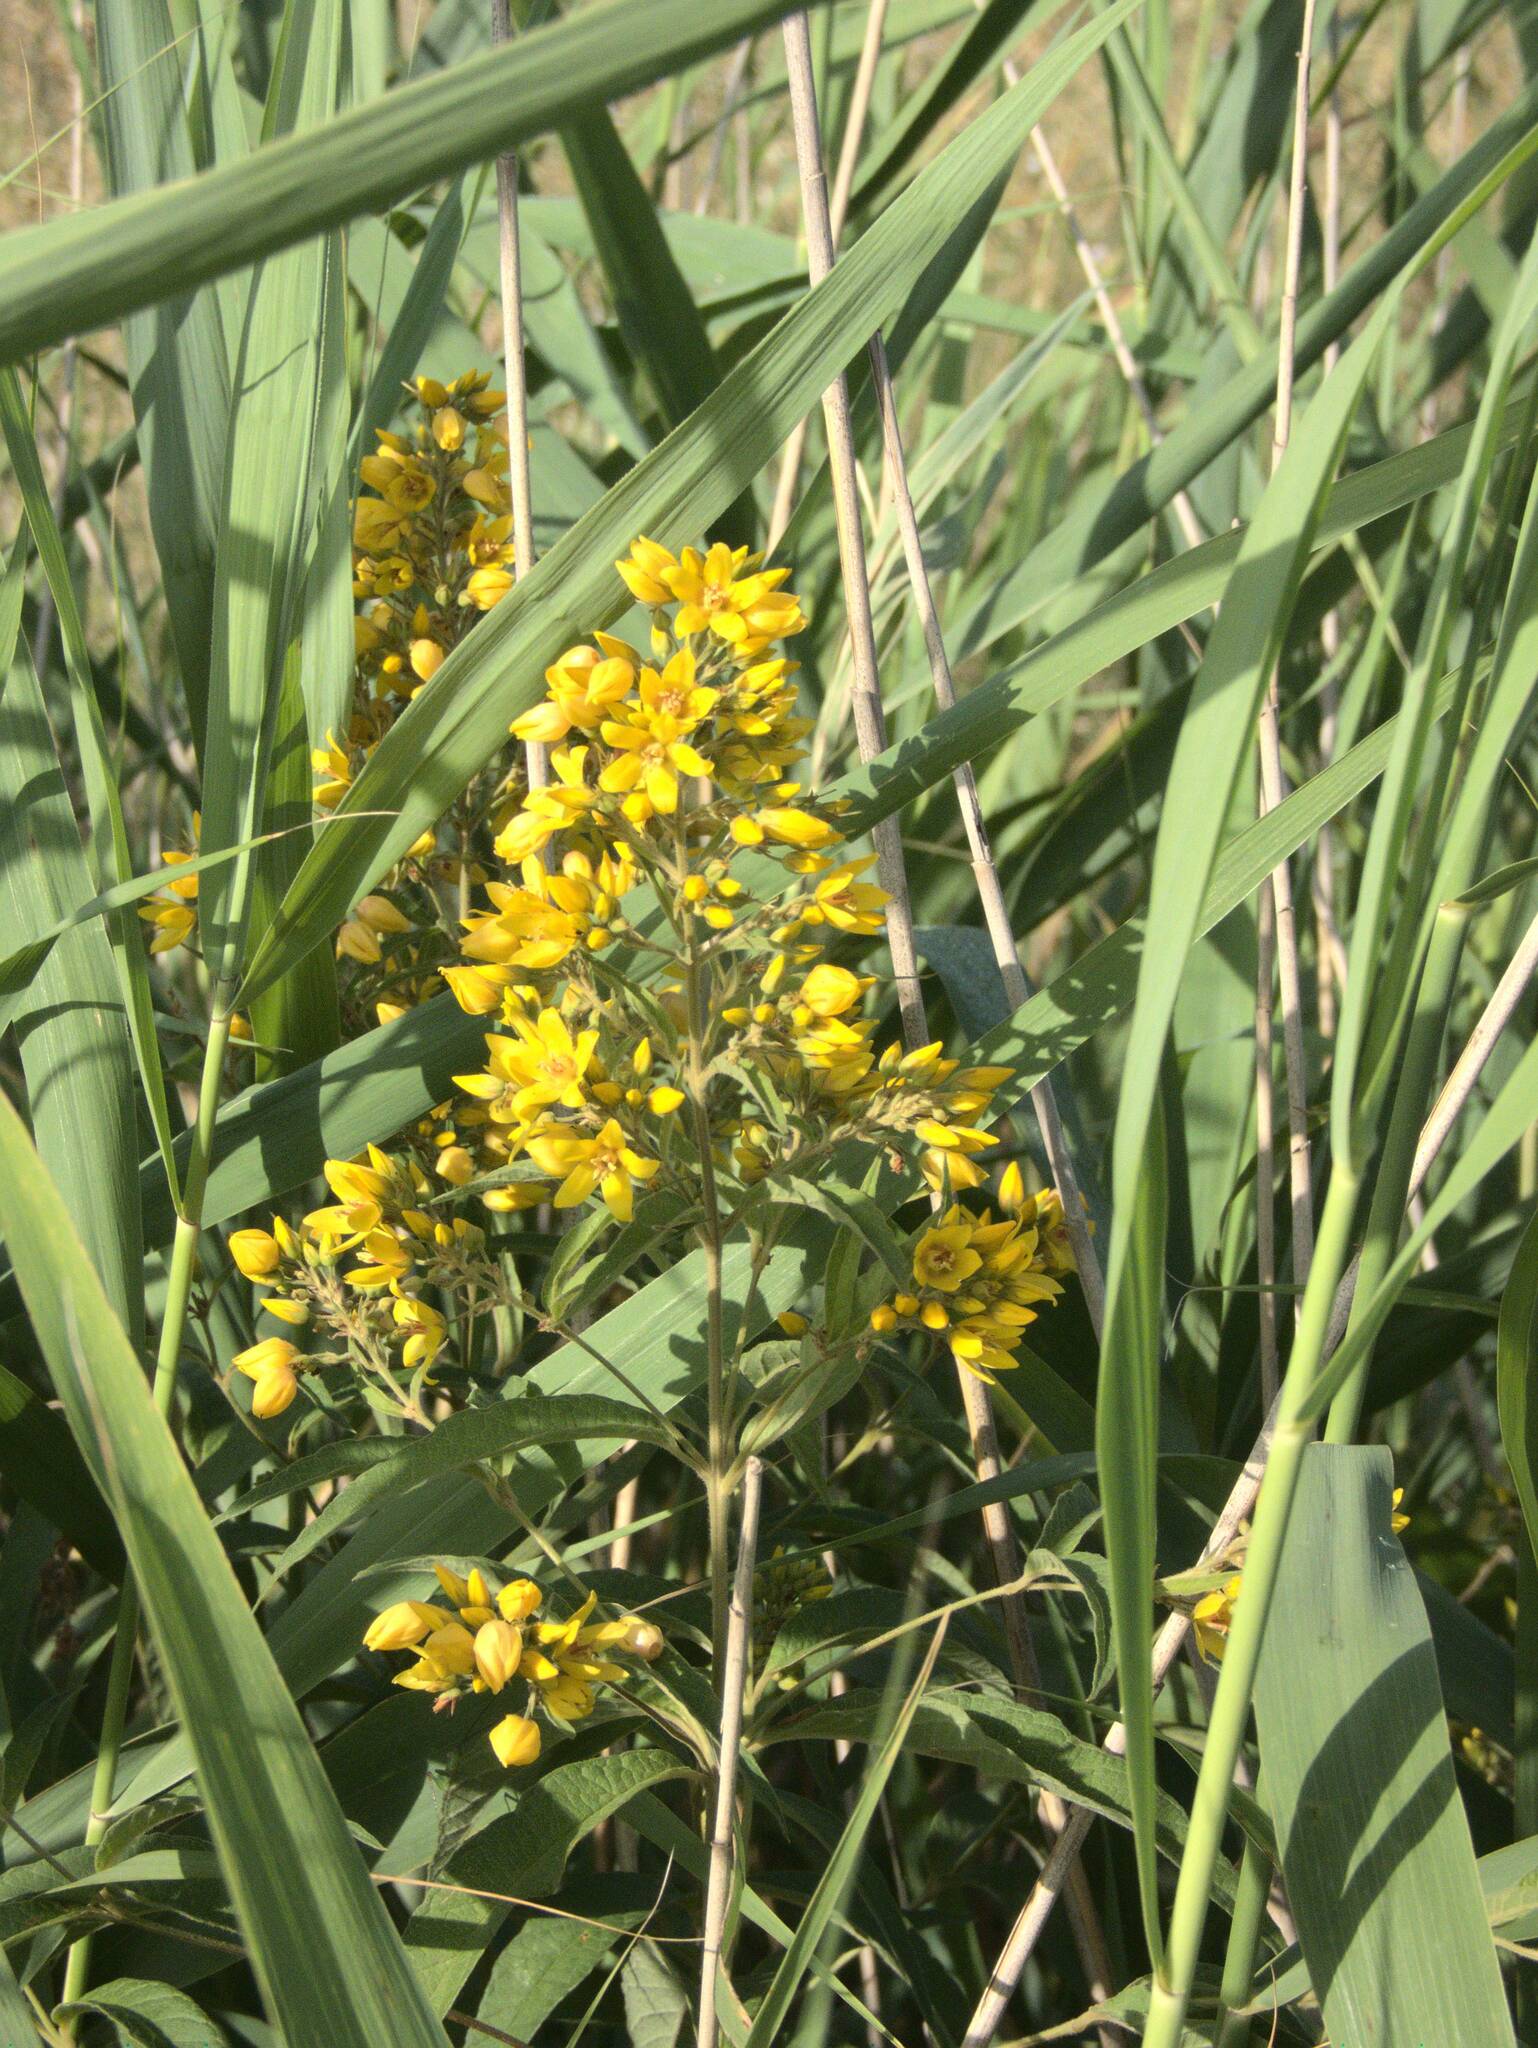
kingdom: Plantae
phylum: Tracheophyta
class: Magnoliopsida
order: Ericales
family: Primulaceae
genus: Lysimachia
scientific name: Lysimachia vulgaris
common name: Yellow loosestrife
